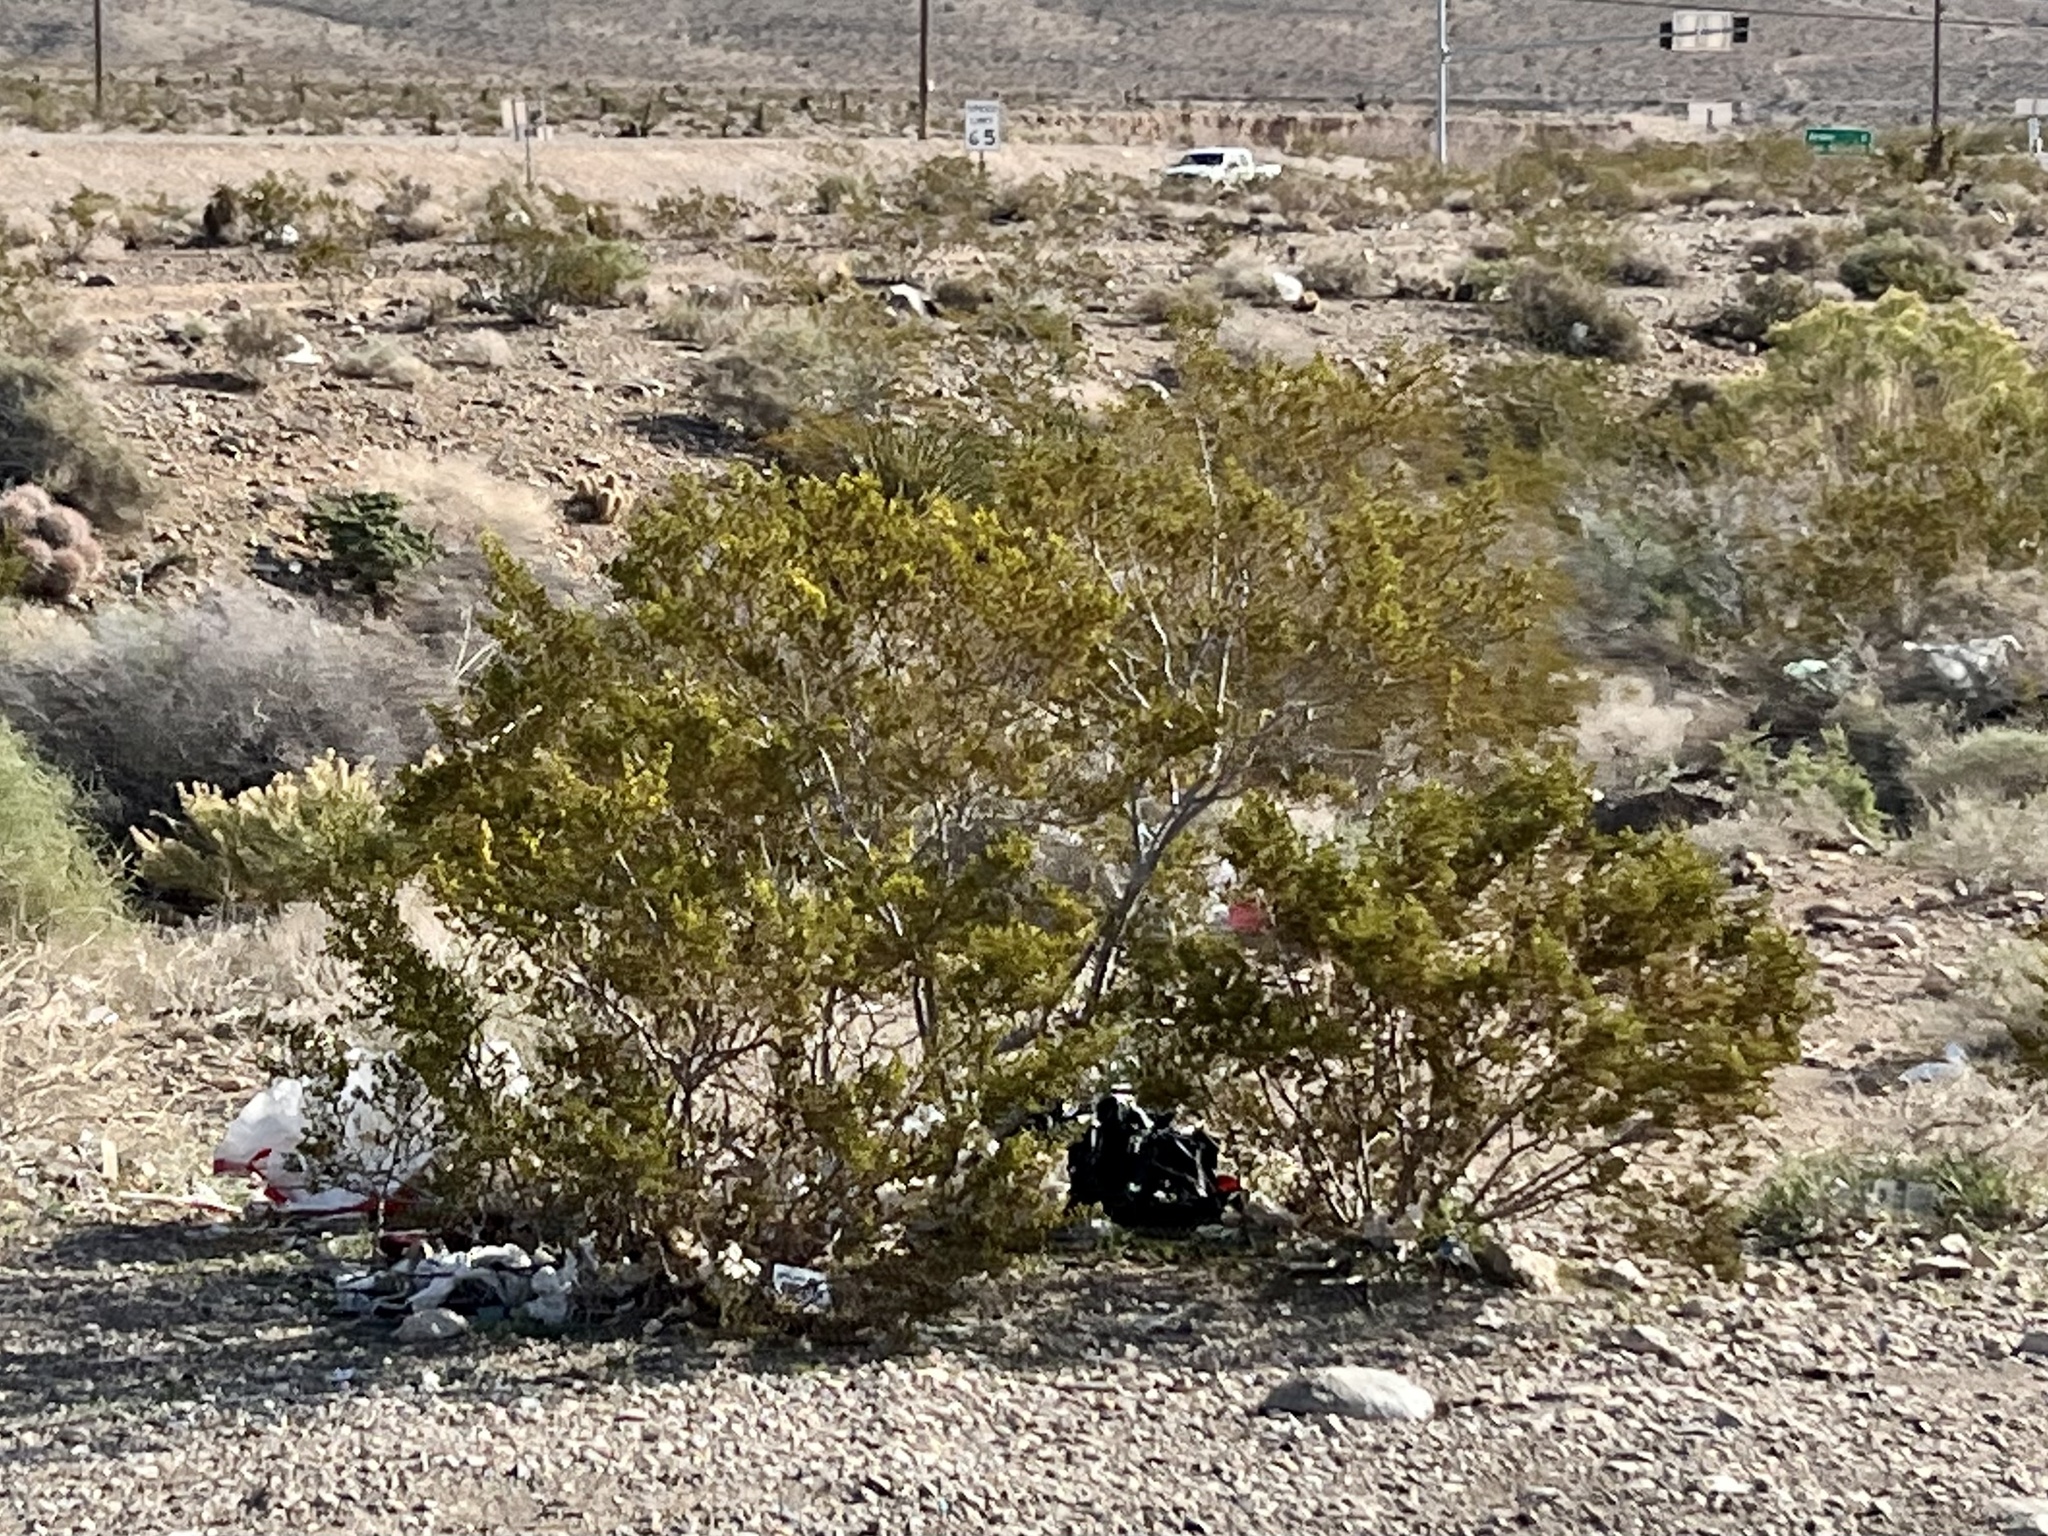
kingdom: Plantae
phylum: Tracheophyta
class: Magnoliopsida
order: Zygophyllales
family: Zygophyllaceae
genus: Larrea
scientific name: Larrea tridentata
